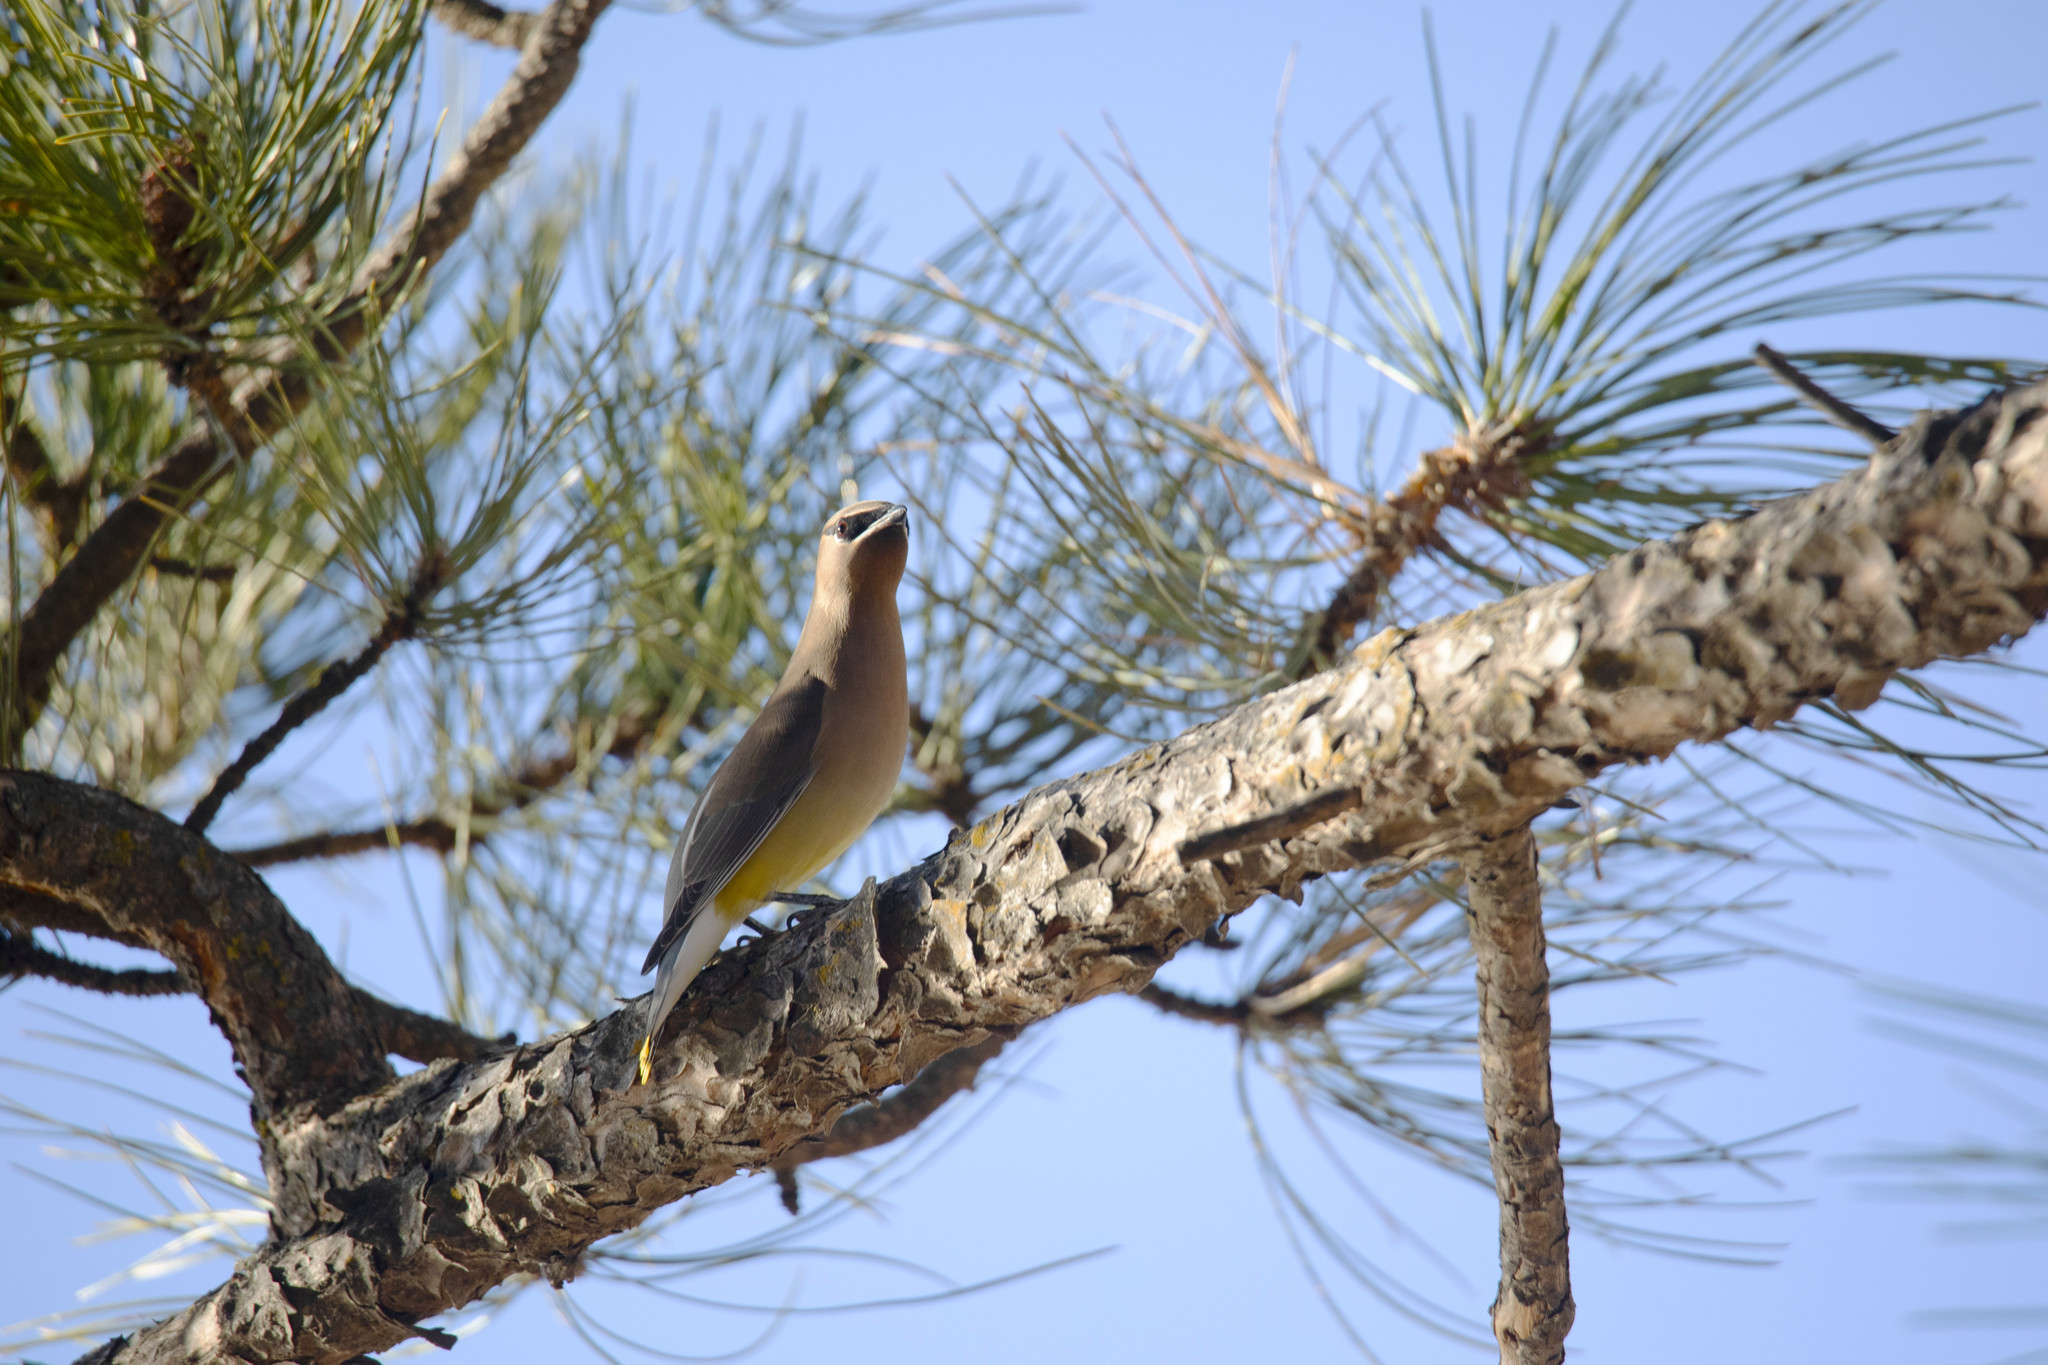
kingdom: Animalia
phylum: Chordata
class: Aves
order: Passeriformes
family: Bombycillidae
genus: Bombycilla
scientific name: Bombycilla cedrorum
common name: Cedar waxwing
